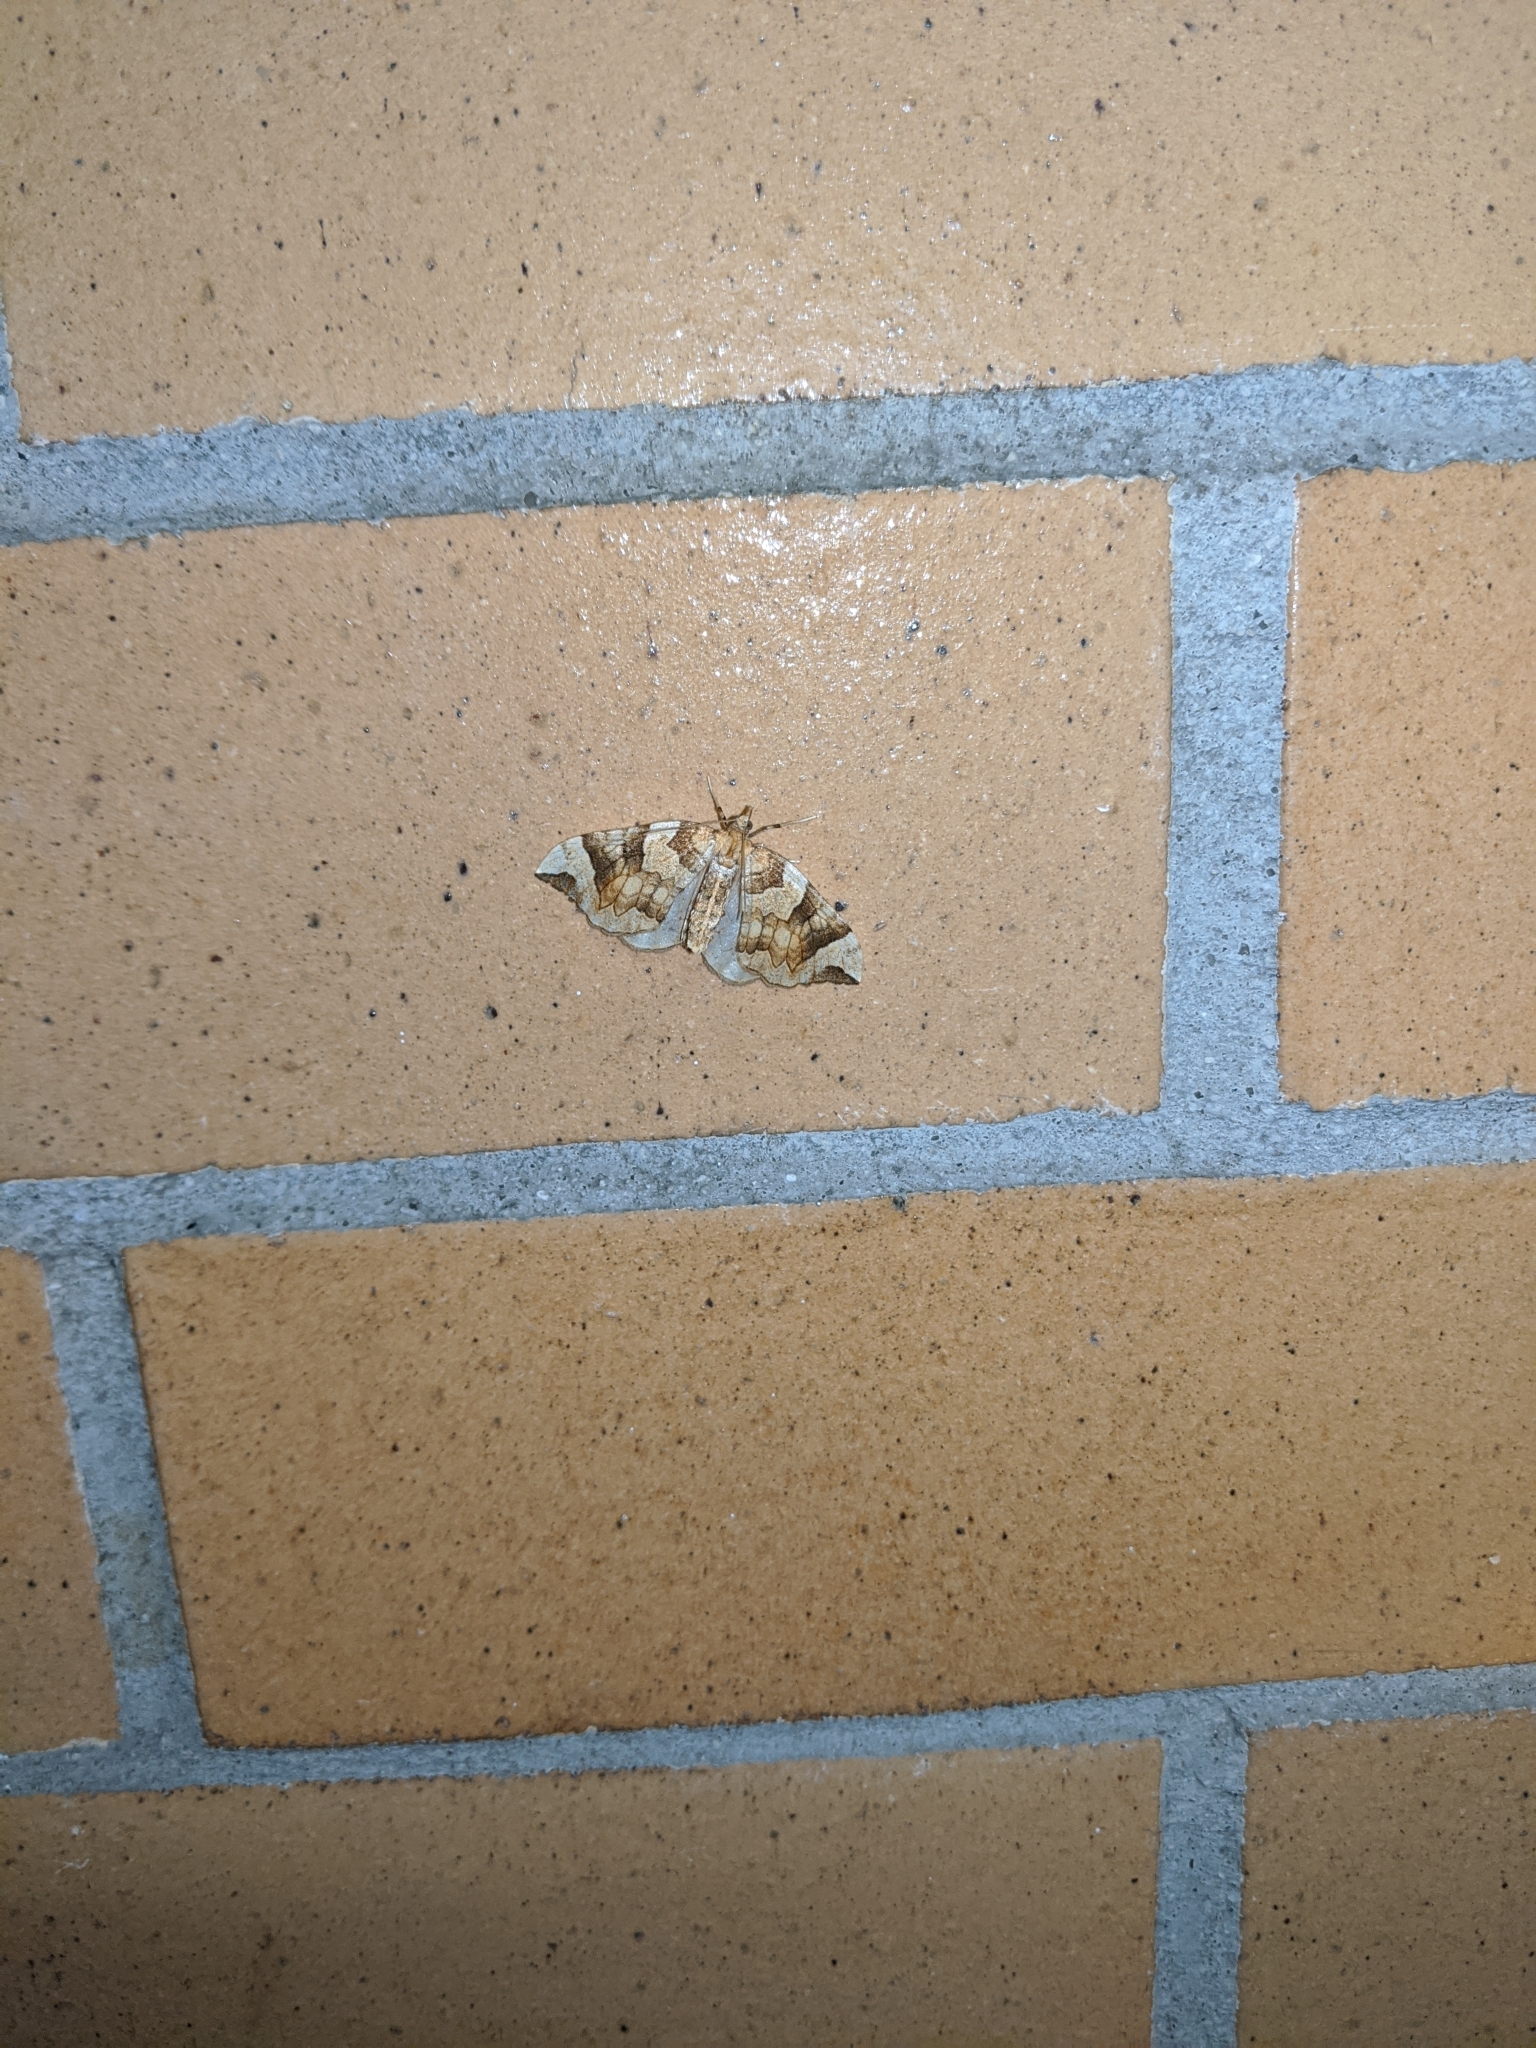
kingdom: Animalia
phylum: Arthropoda
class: Insecta
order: Lepidoptera
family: Geometridae
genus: Eulithis
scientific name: Eulithis propulsata
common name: Currant eulithis moth
